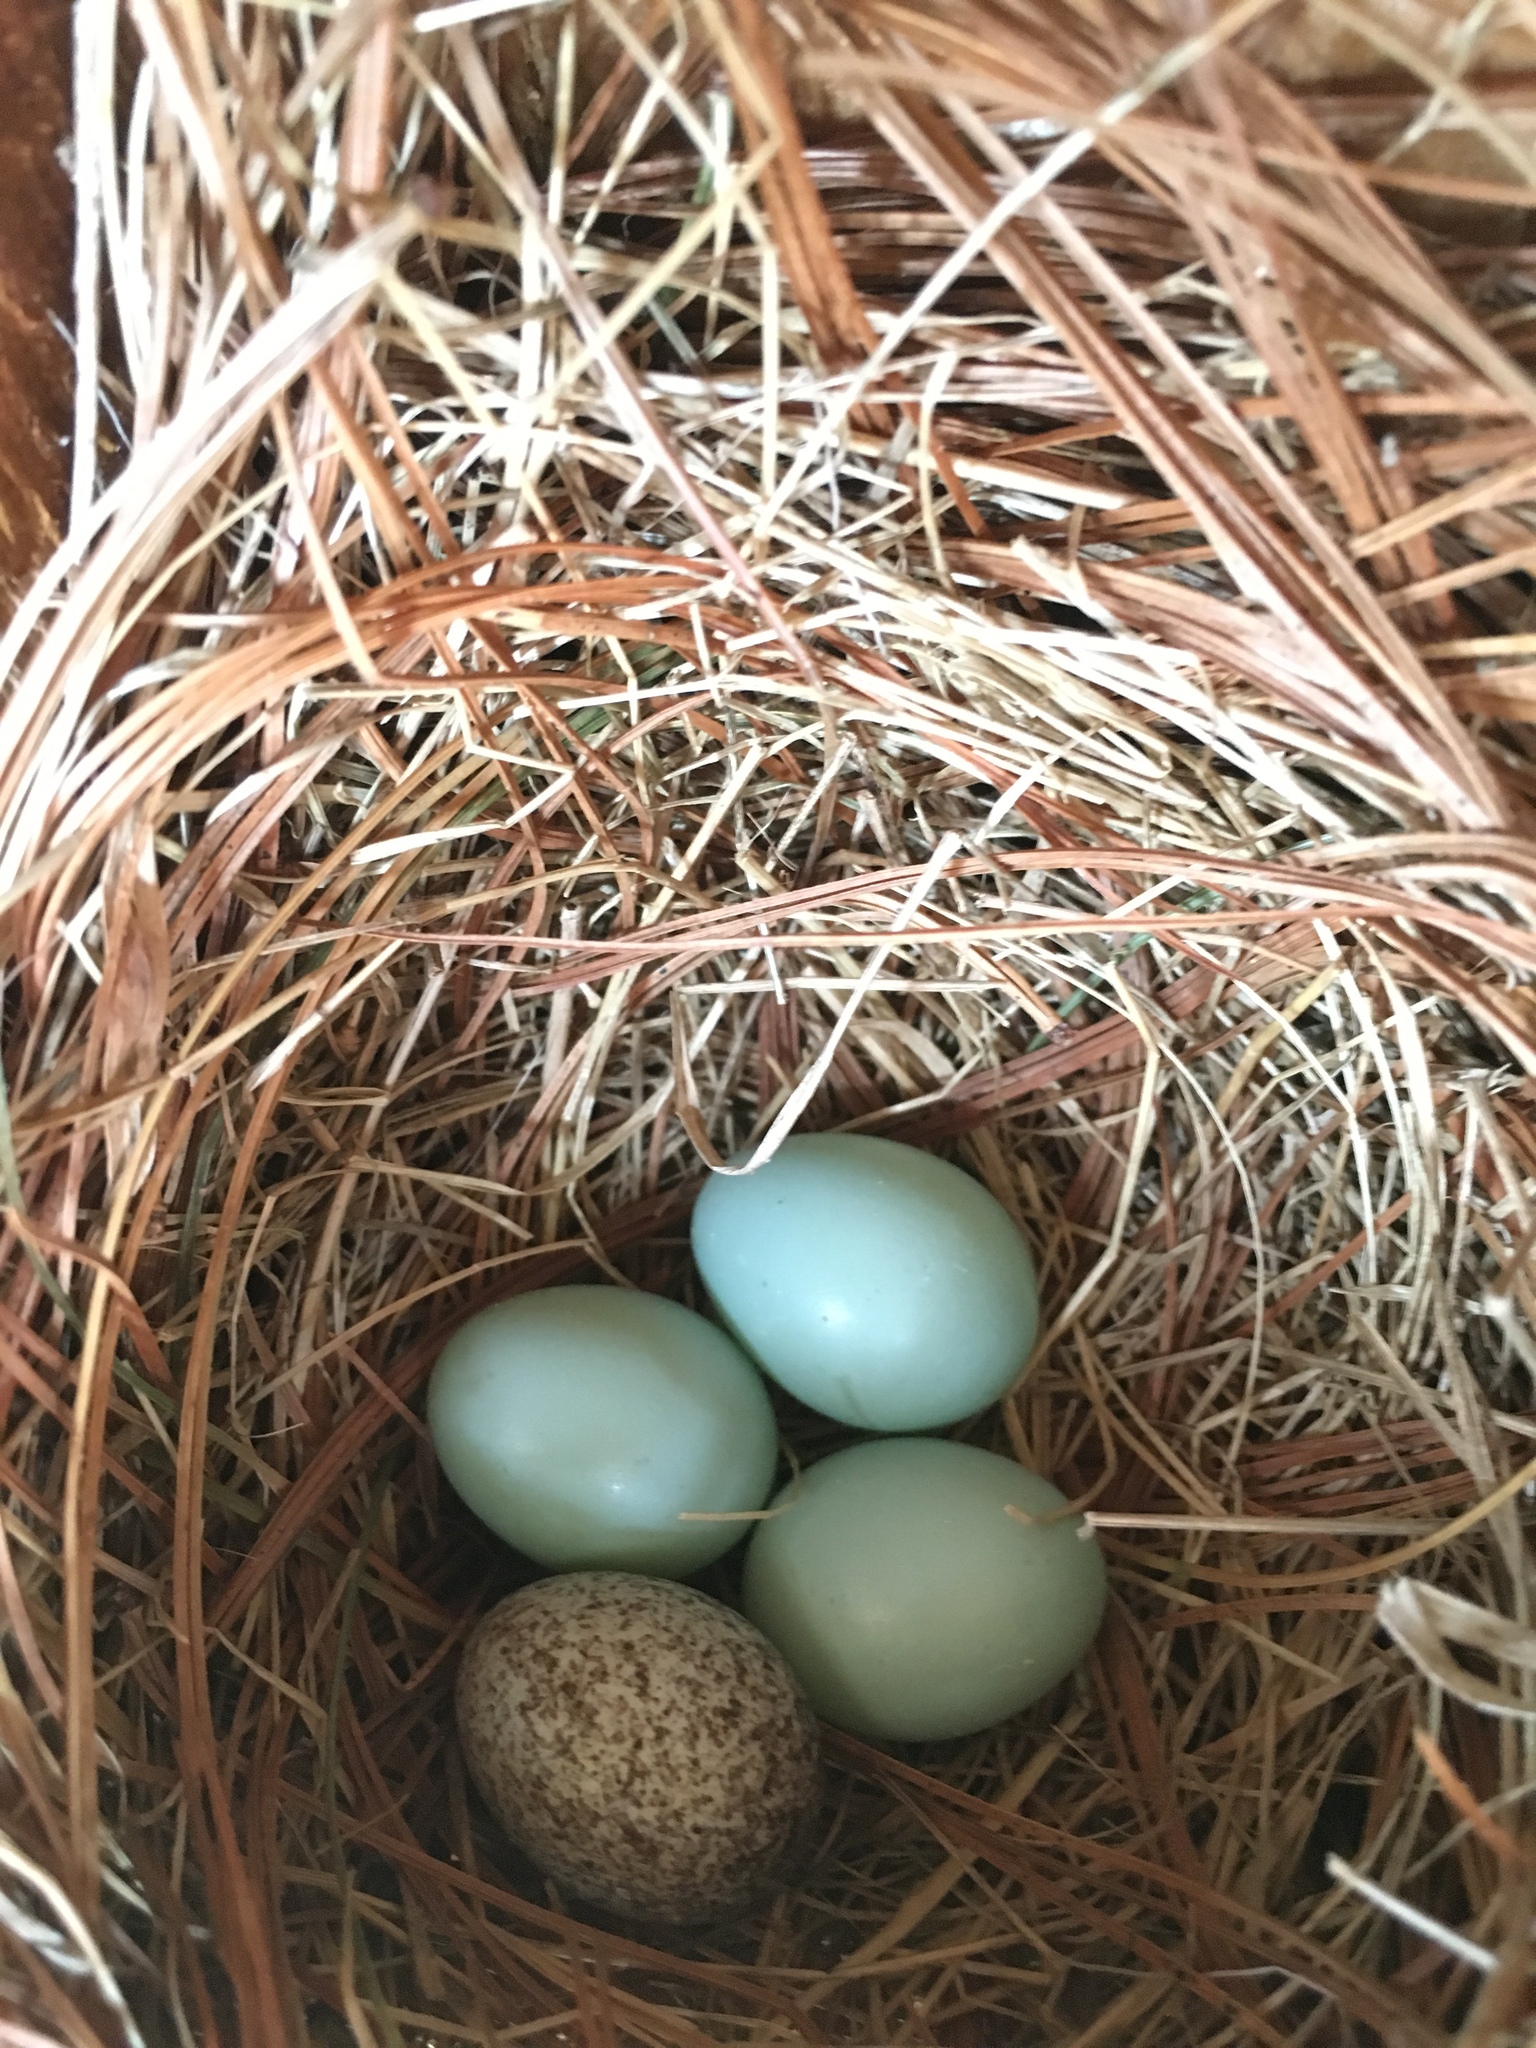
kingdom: Animalia
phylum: Chordata
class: Aves
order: Passeriformes
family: Icteridae
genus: Molothrus
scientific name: Molothrus ater
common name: Brown-headed cowbird
